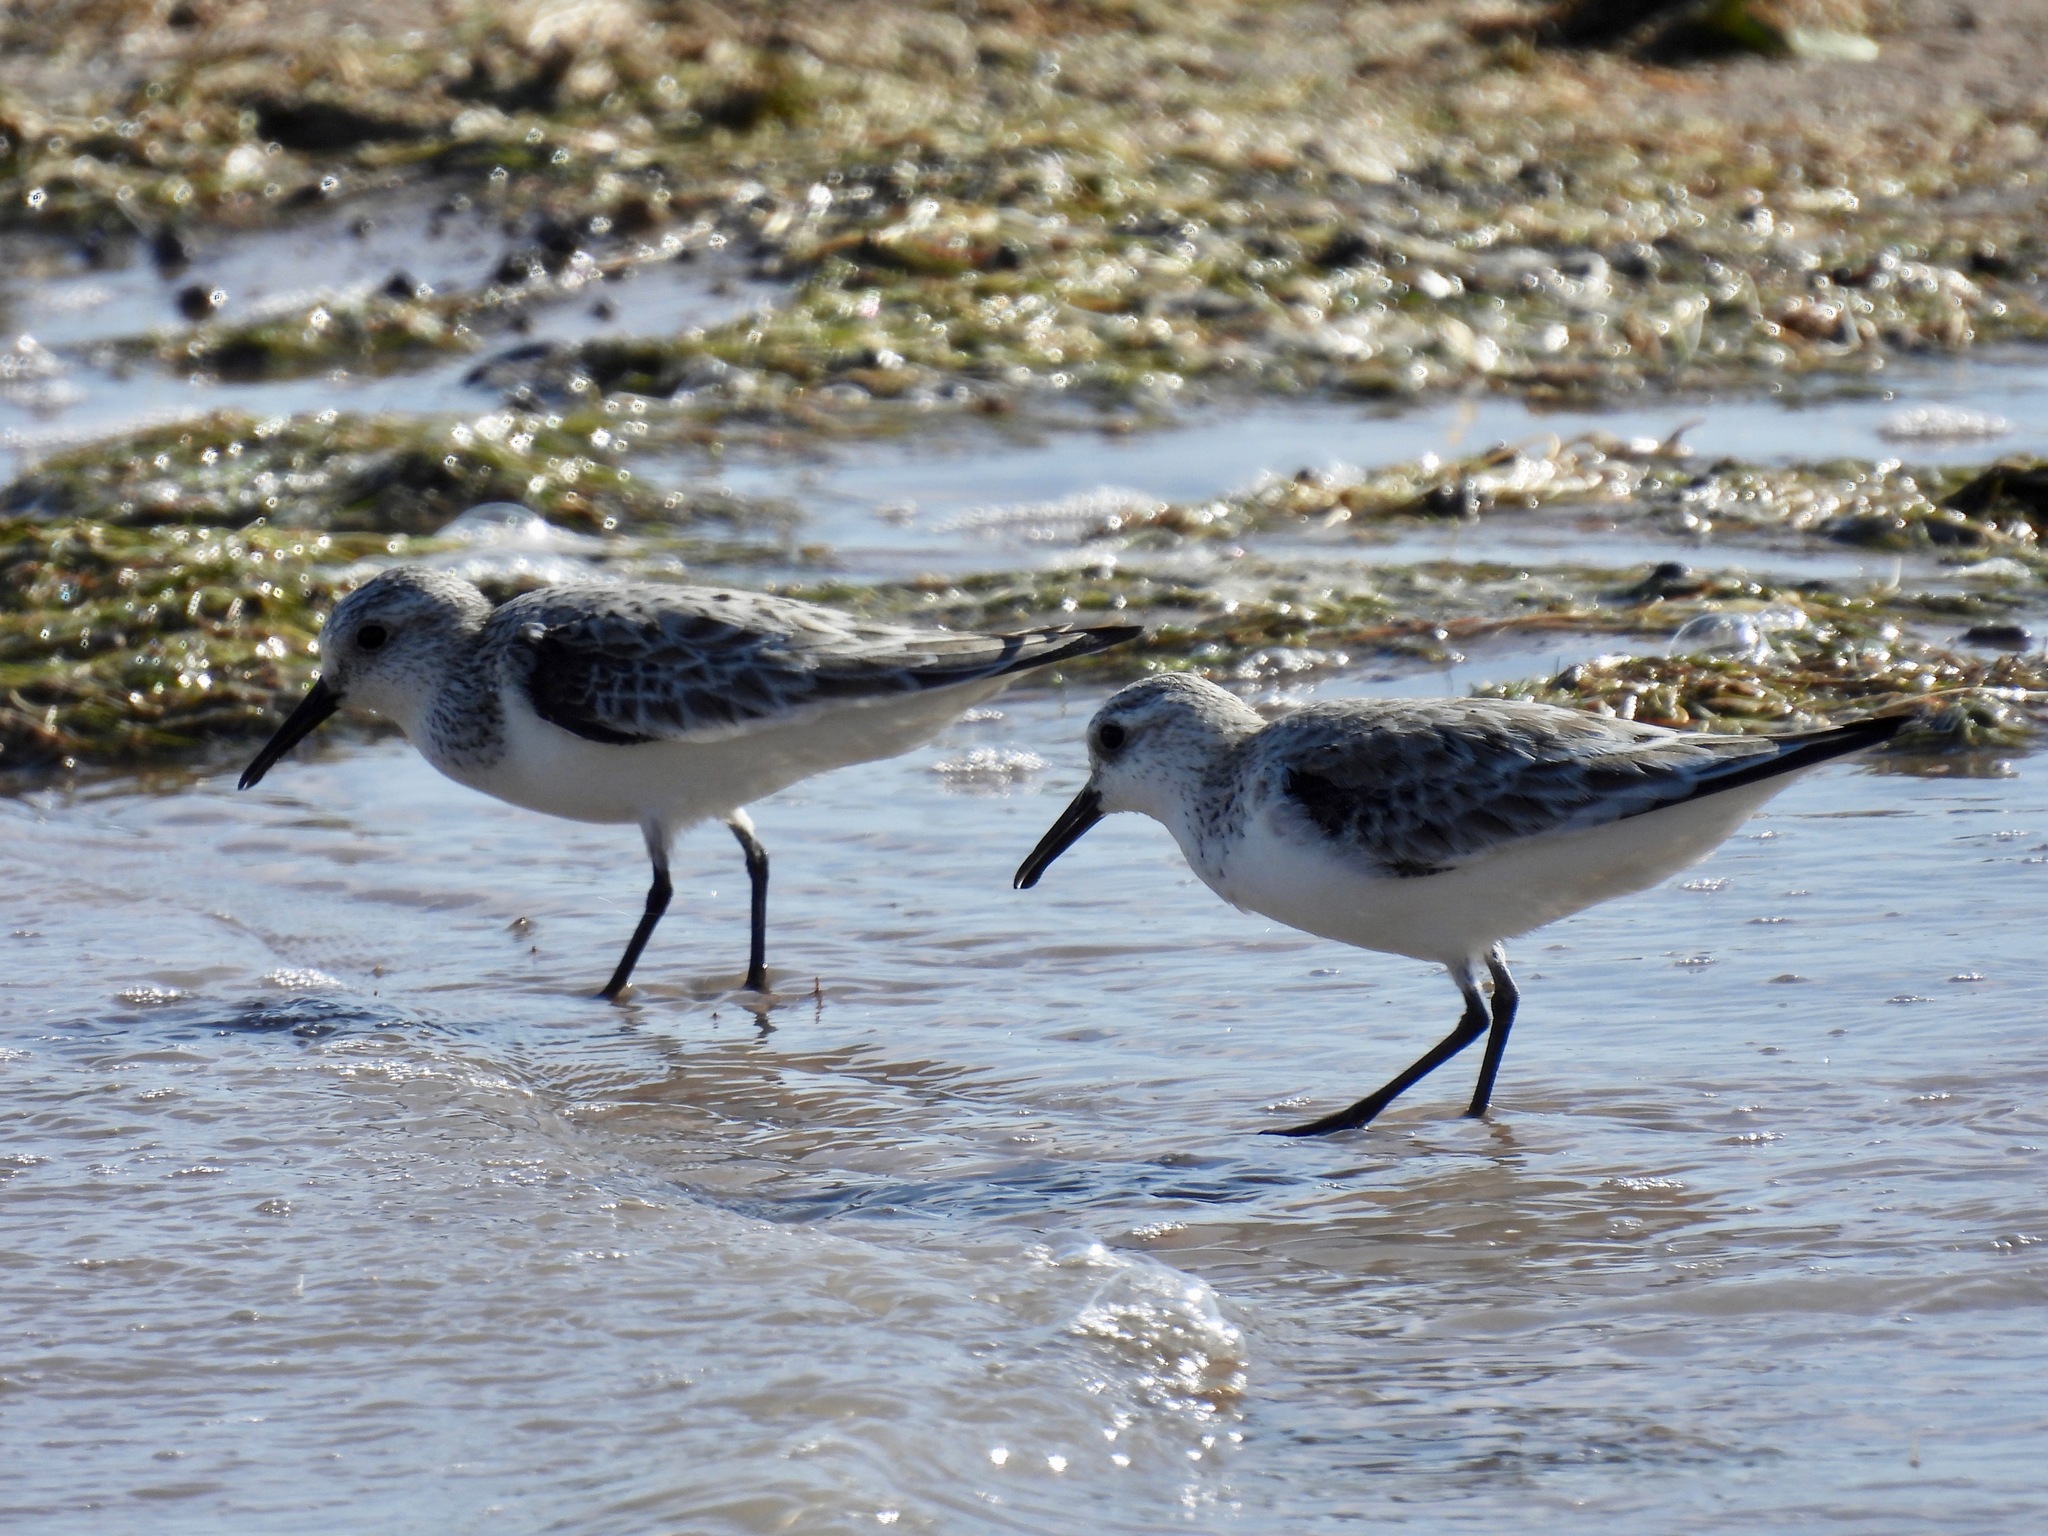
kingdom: Animalia
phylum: Chordata
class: Aves
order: Charadriiformes
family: Scolopacidae
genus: Calidris
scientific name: Calidris alba
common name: Sanderling
